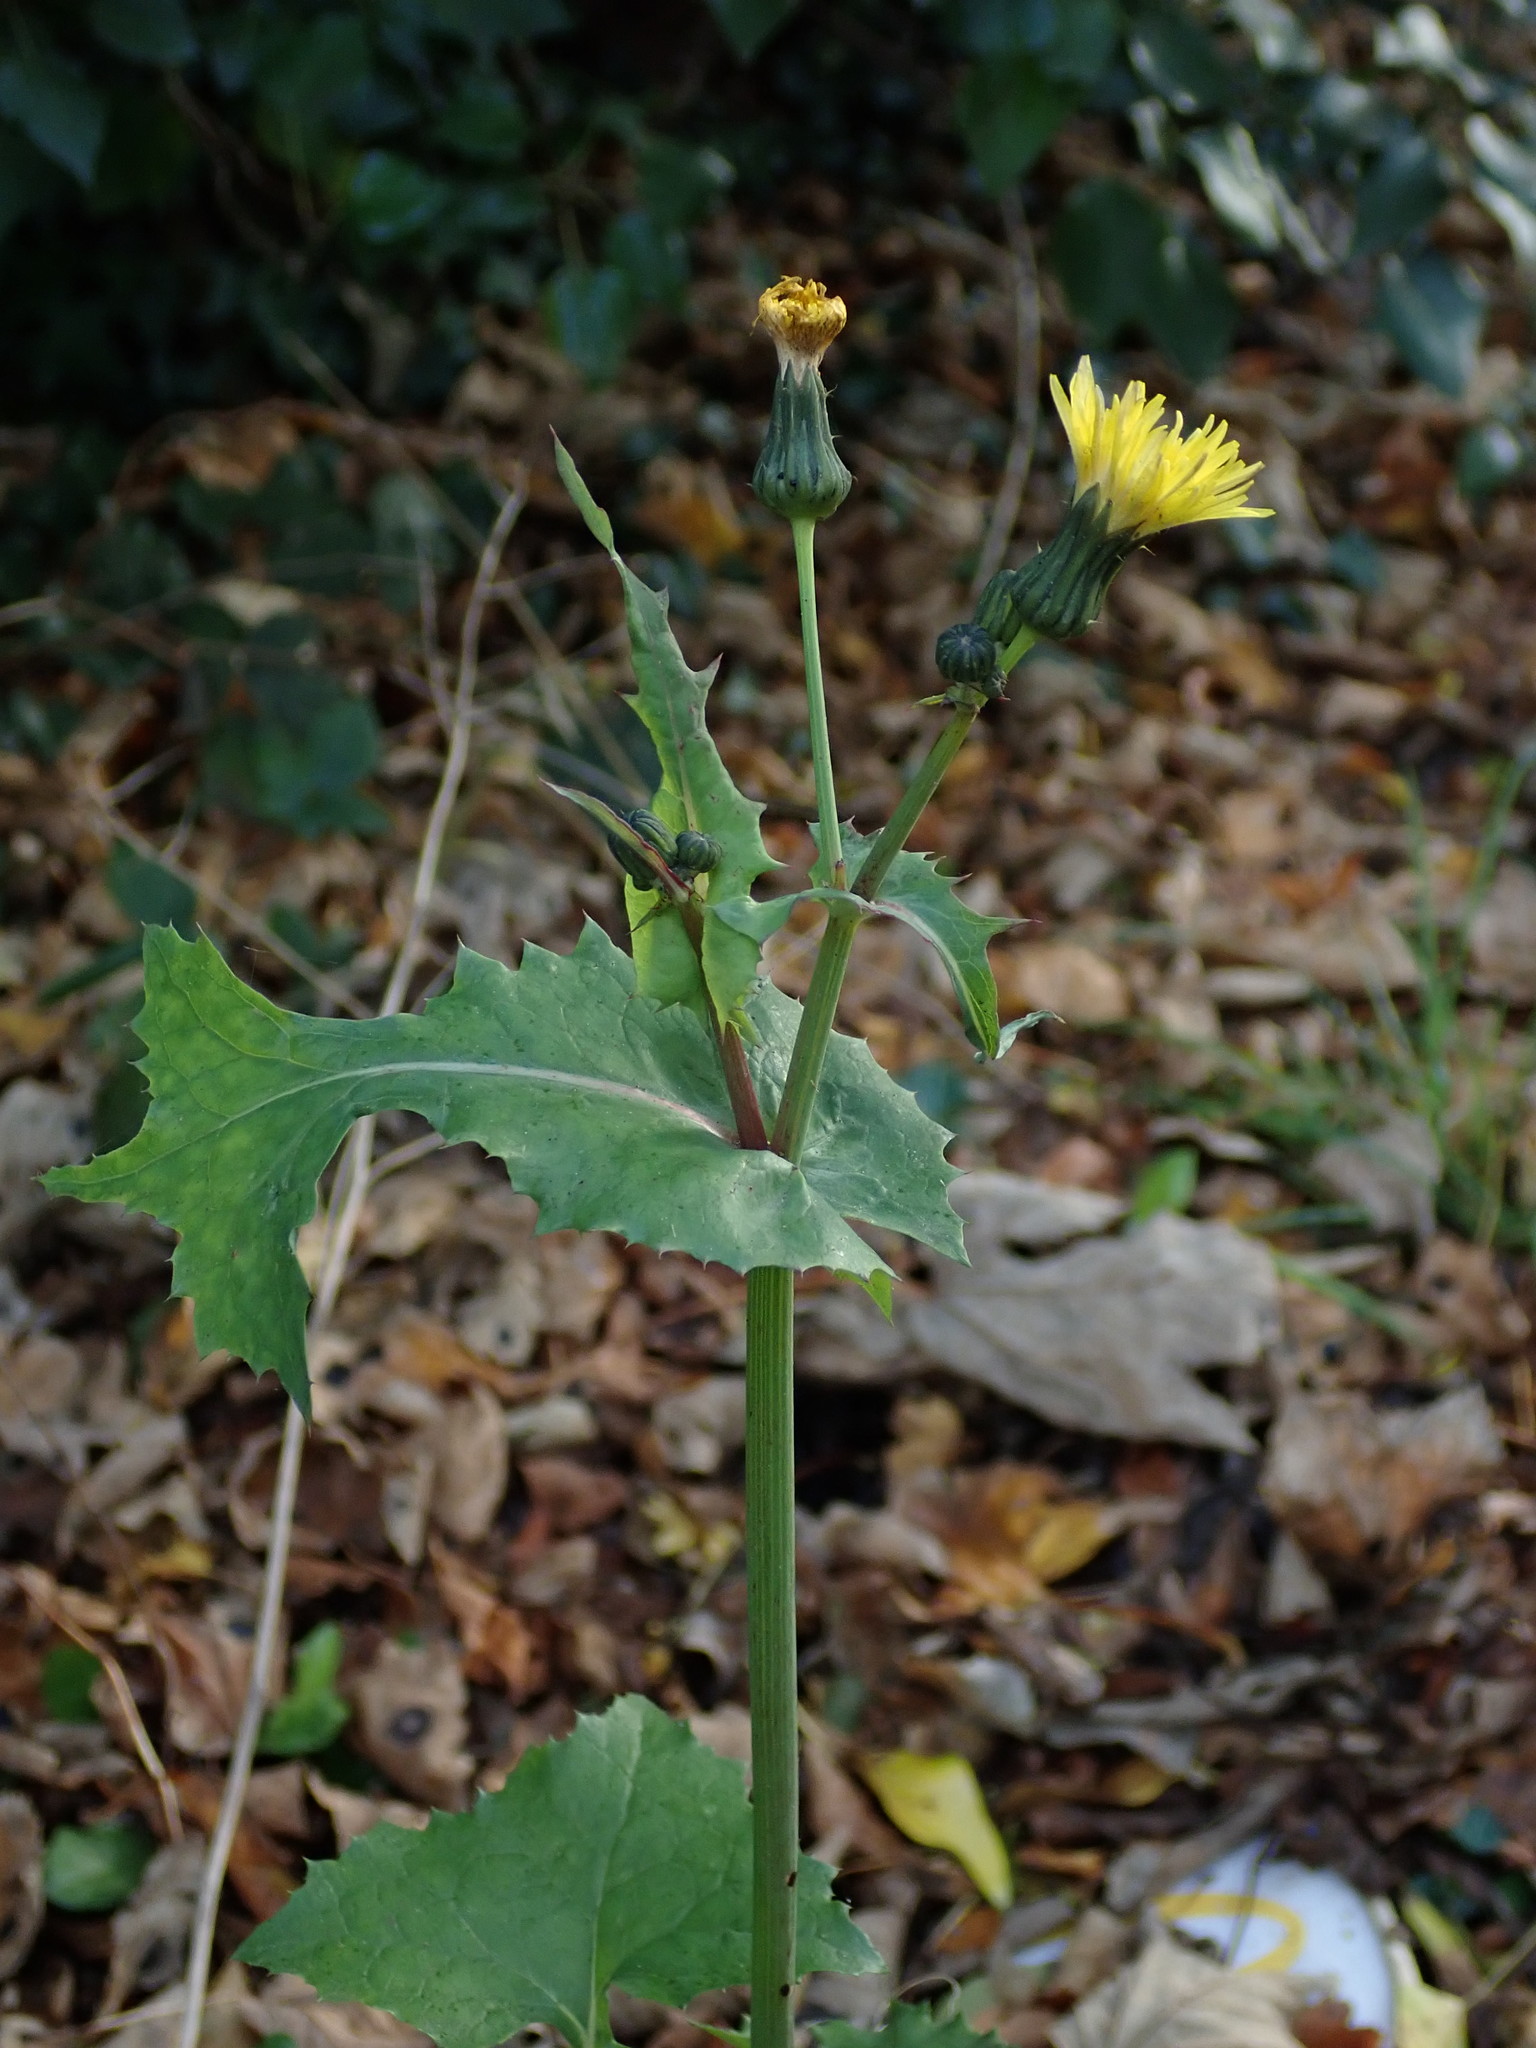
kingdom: Plantae
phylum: Tracheophyta
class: Magnoliopsida
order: Asterales
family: Asteraceae
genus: Sonchus
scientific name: Sonchus oleraceus
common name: Common sowthistle
